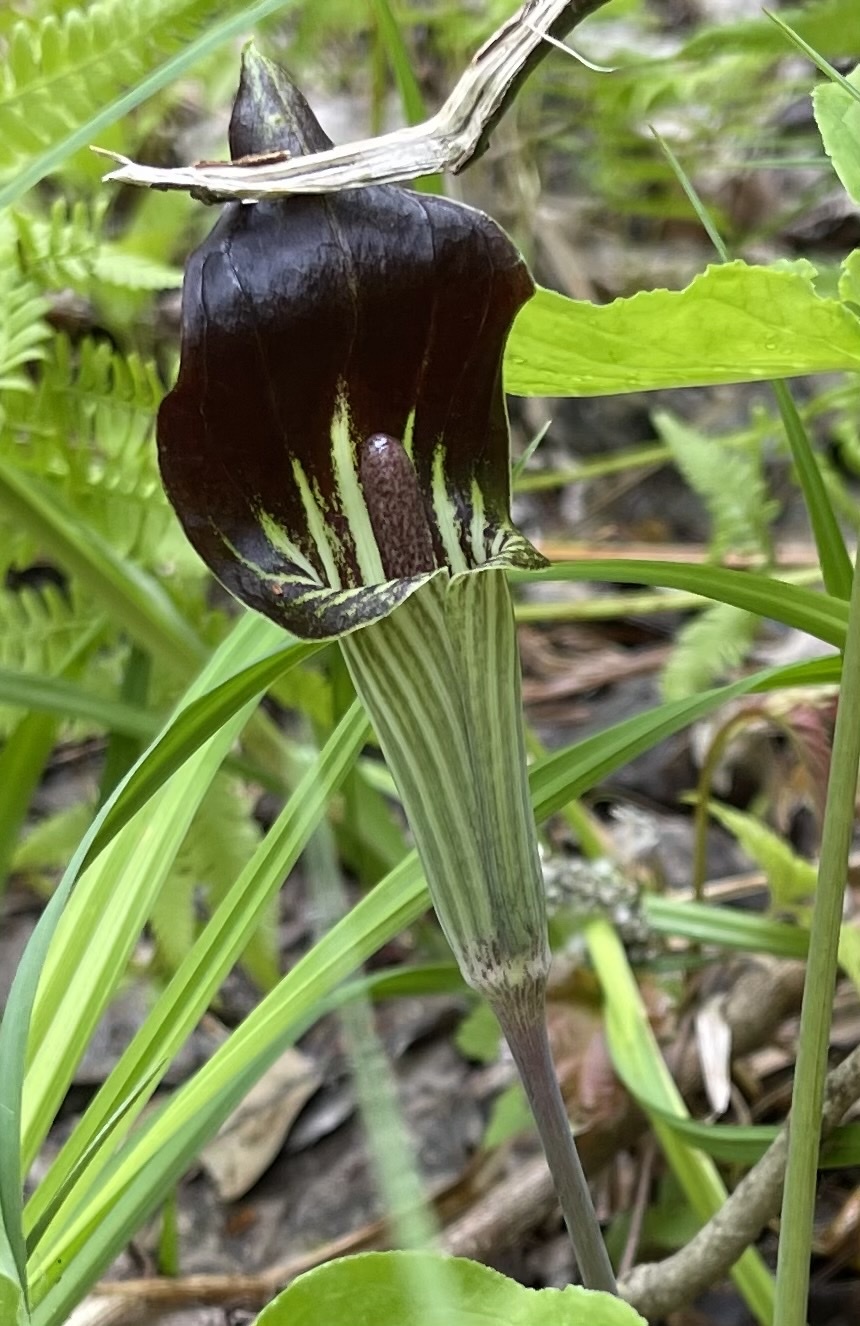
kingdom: Plantae
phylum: Tracheophyta
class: Liliopsida
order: Alismatales
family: Araceae
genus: Arisaema
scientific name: Arisaema triphyllum
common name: Jack-in-the-pulpit
